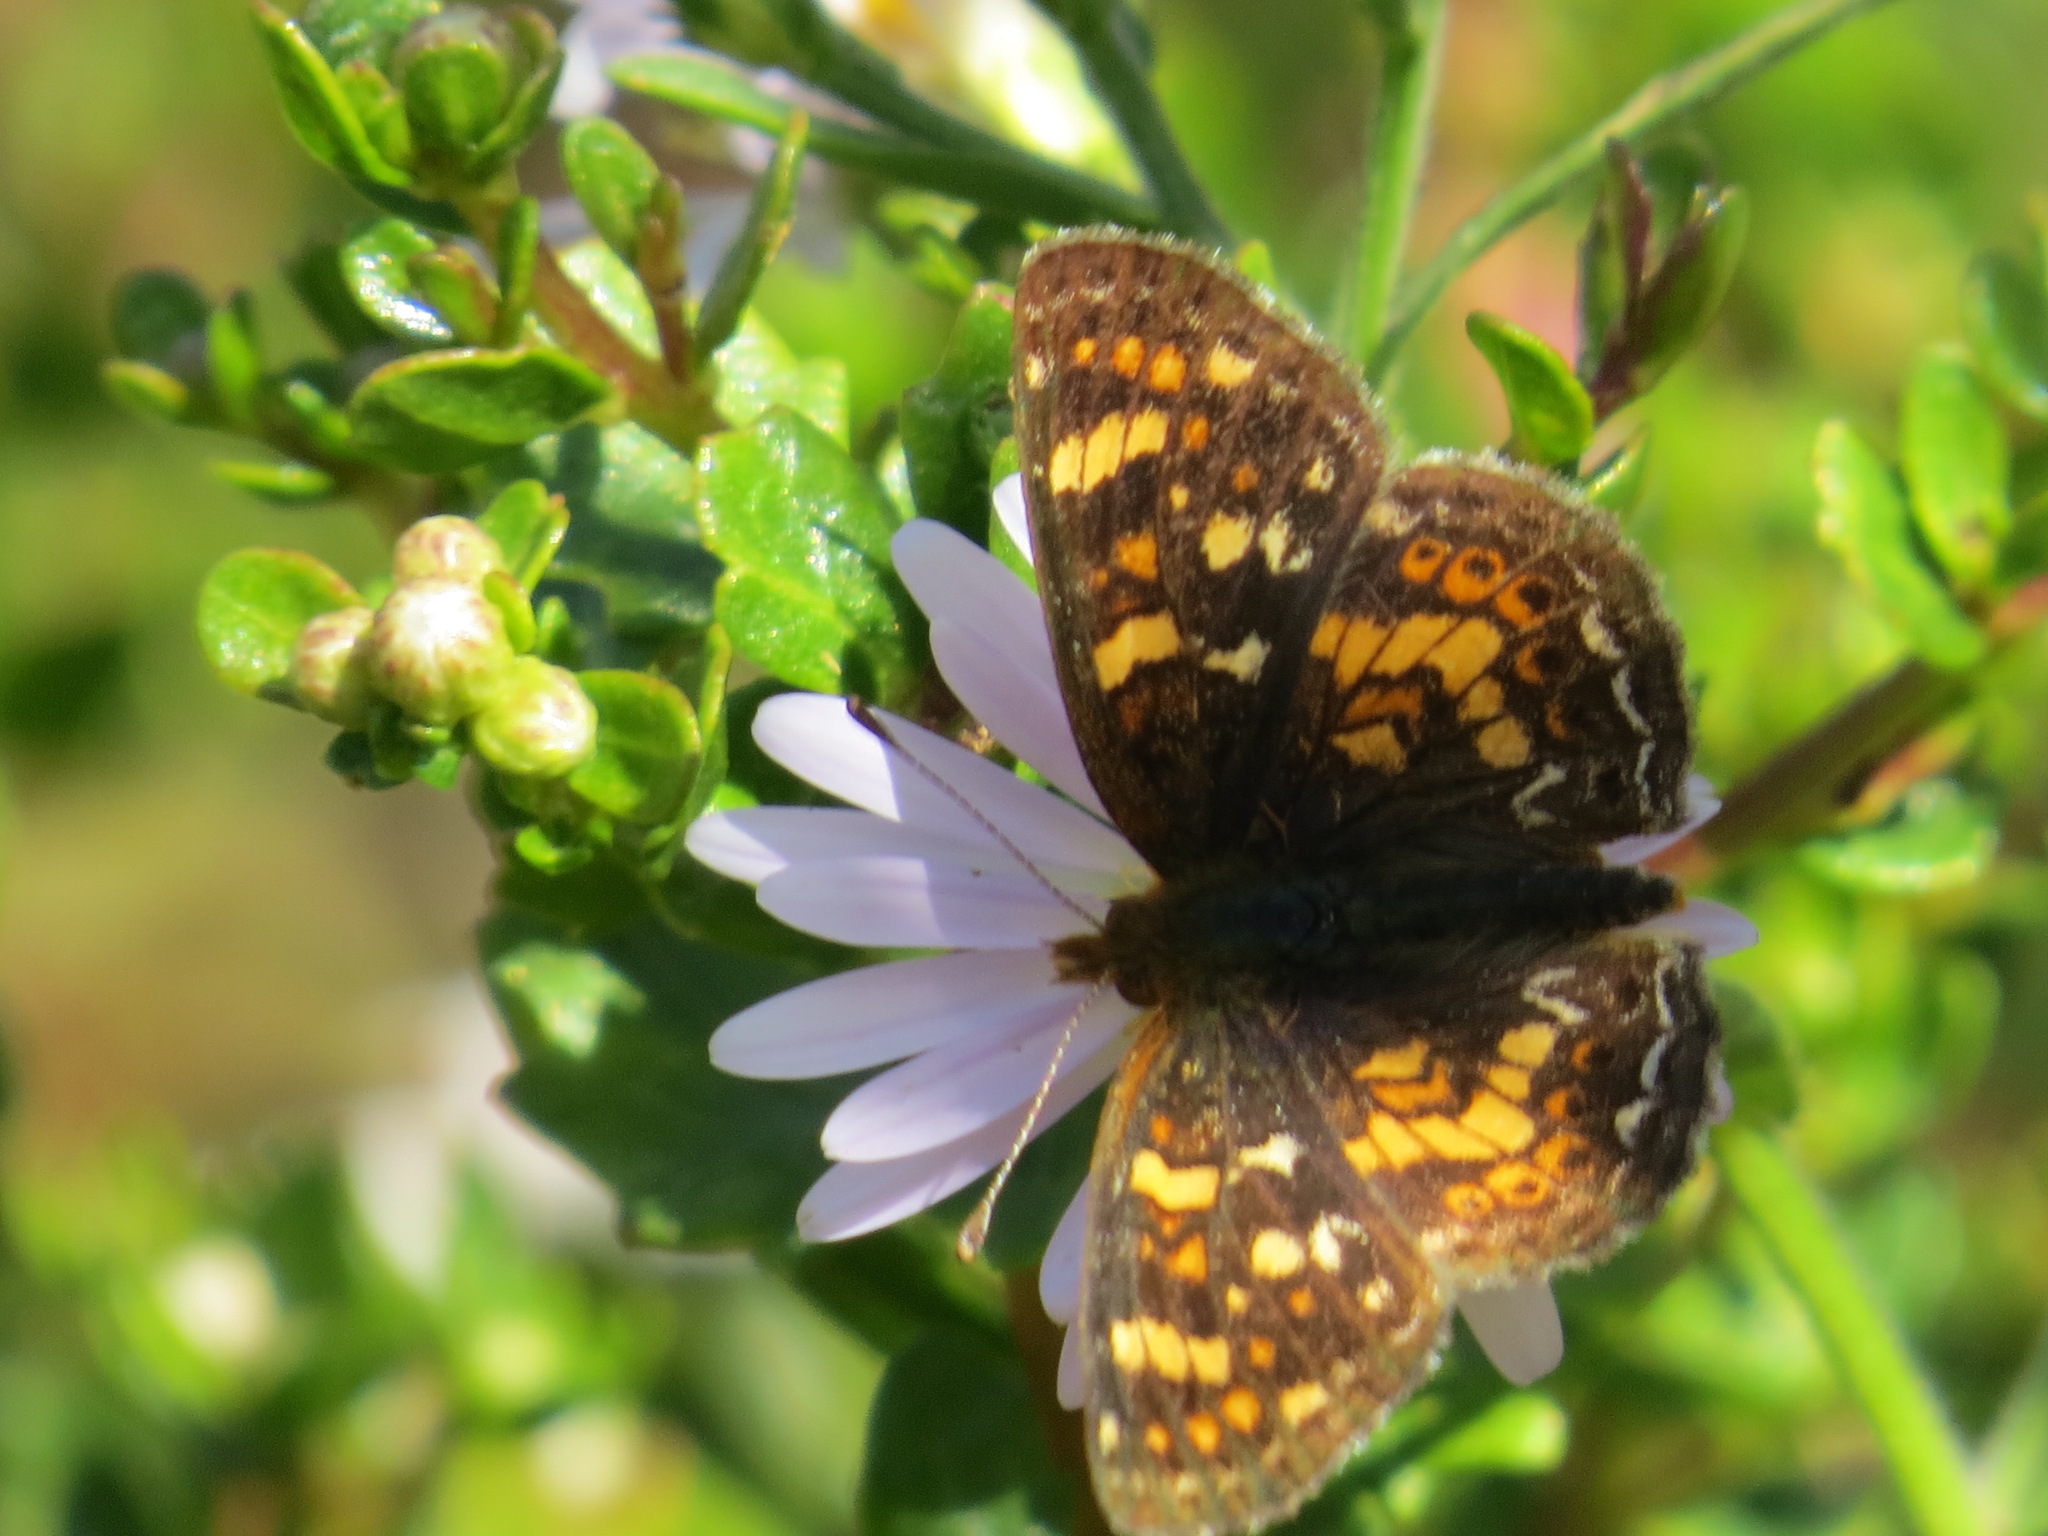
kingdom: Animalia
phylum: Arthropoda
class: Insecta
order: Lepidoptera
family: Nymphalidae
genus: Phyciodes
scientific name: Phyciodes tharos
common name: Pearl crescent
